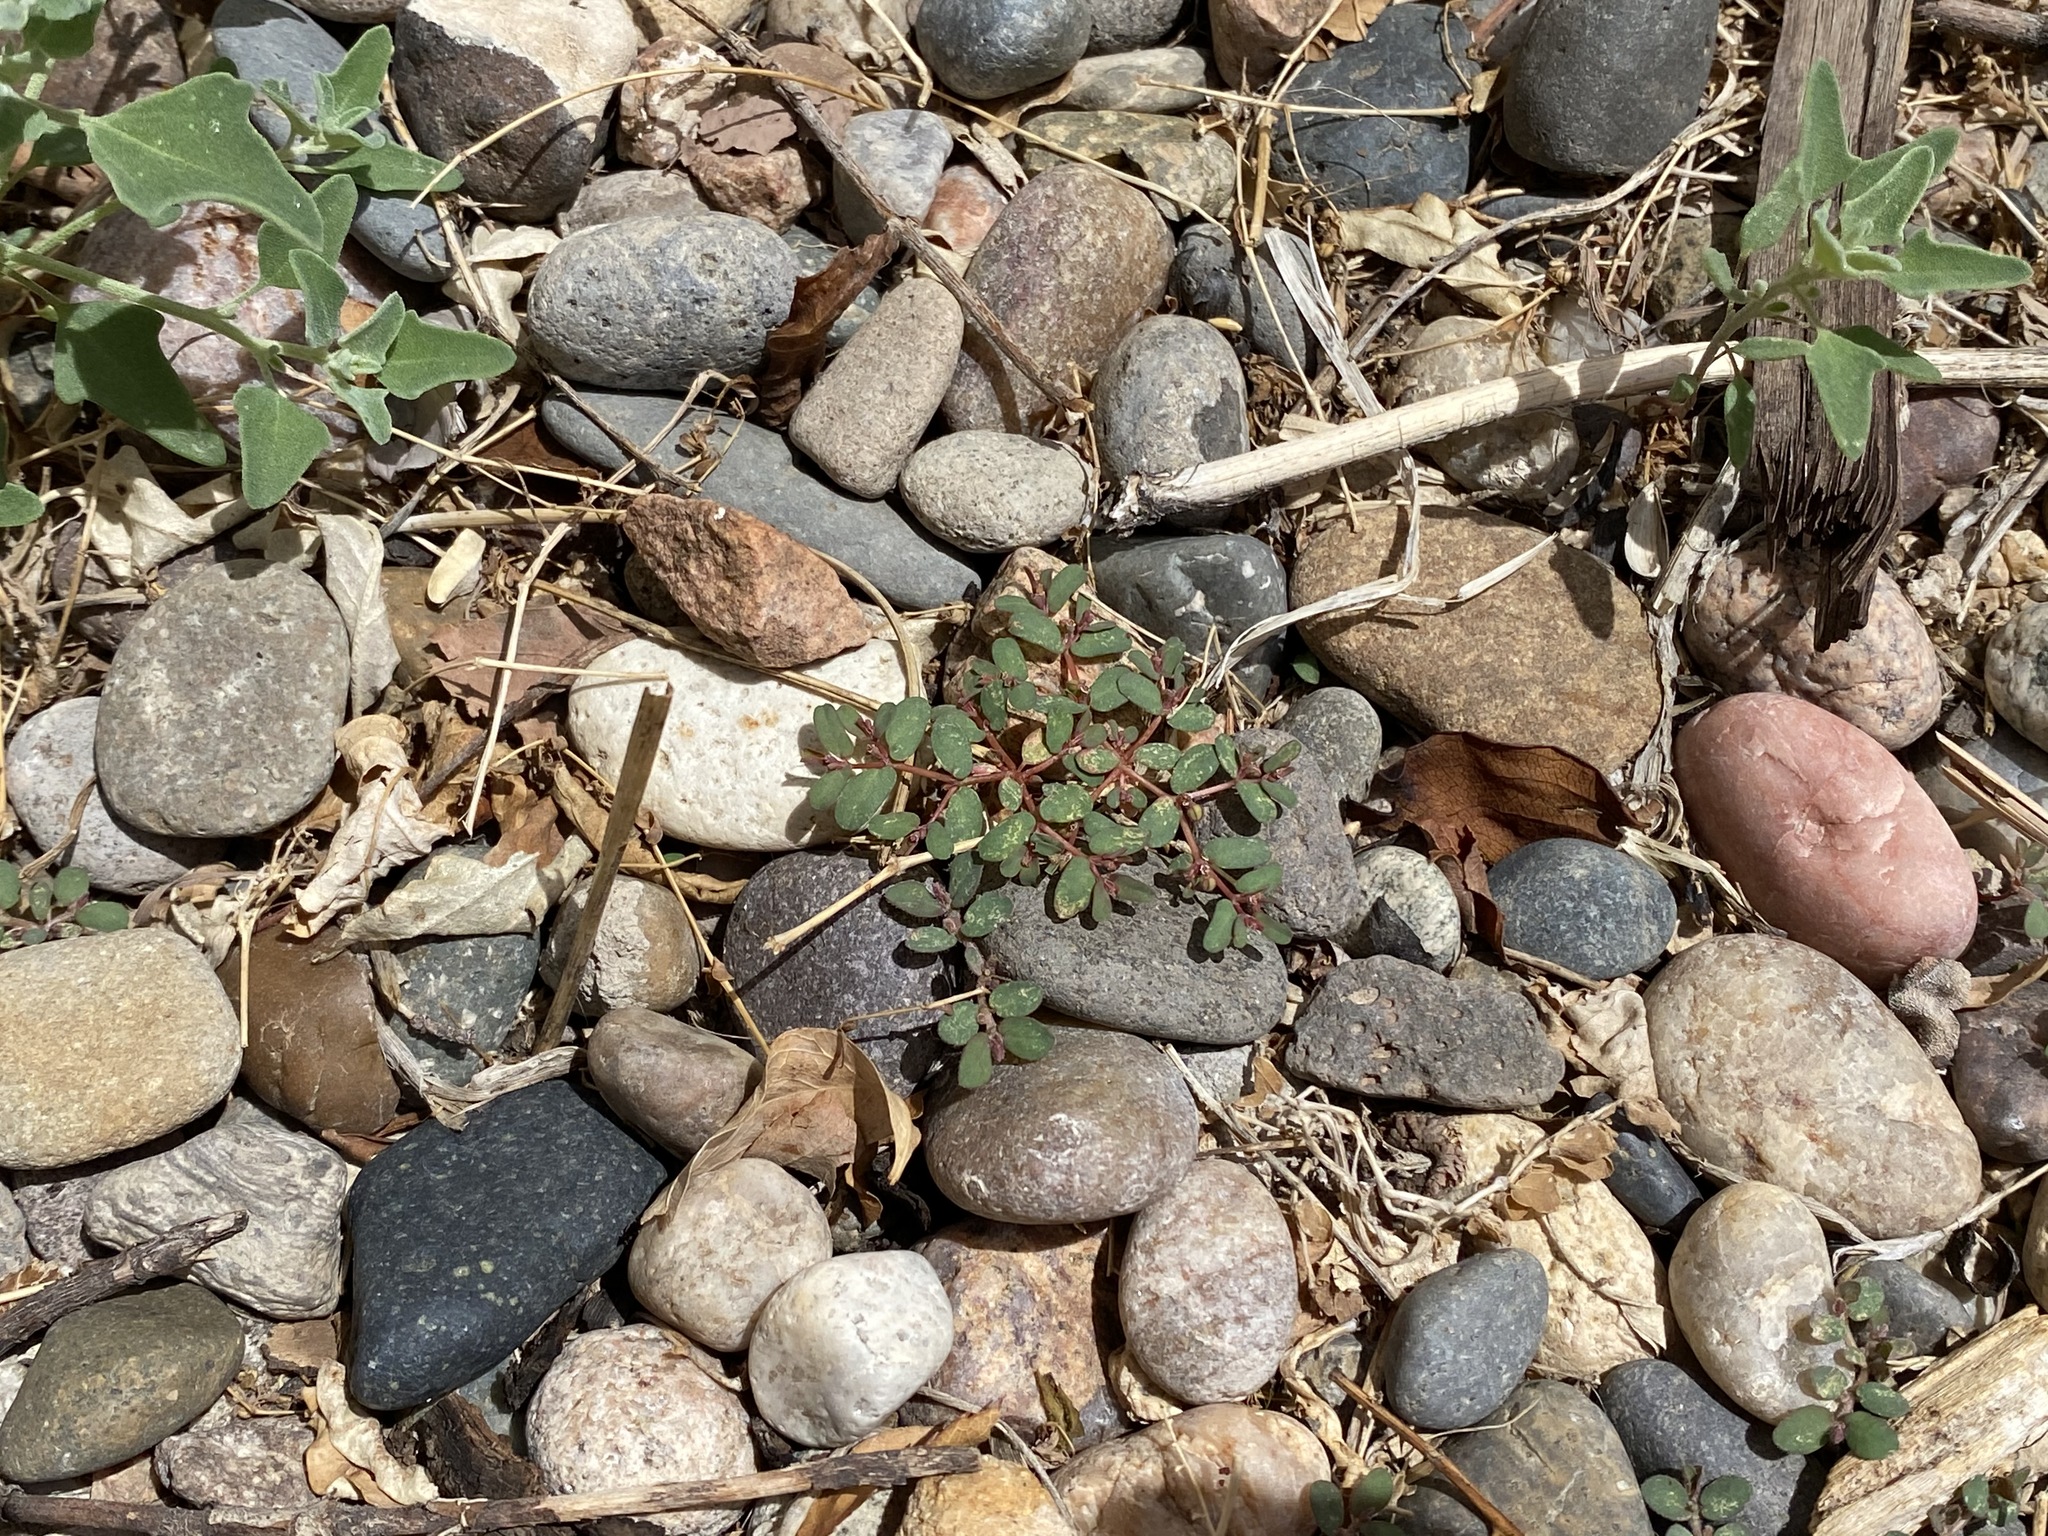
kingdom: Plantae
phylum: Tracheophyta
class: Magnoliopsida
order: Malpighiales
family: Euphorbiaceae
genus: Euphorbia
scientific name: Euphorbia glyptosperma
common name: Corrugate-seeded spurge
